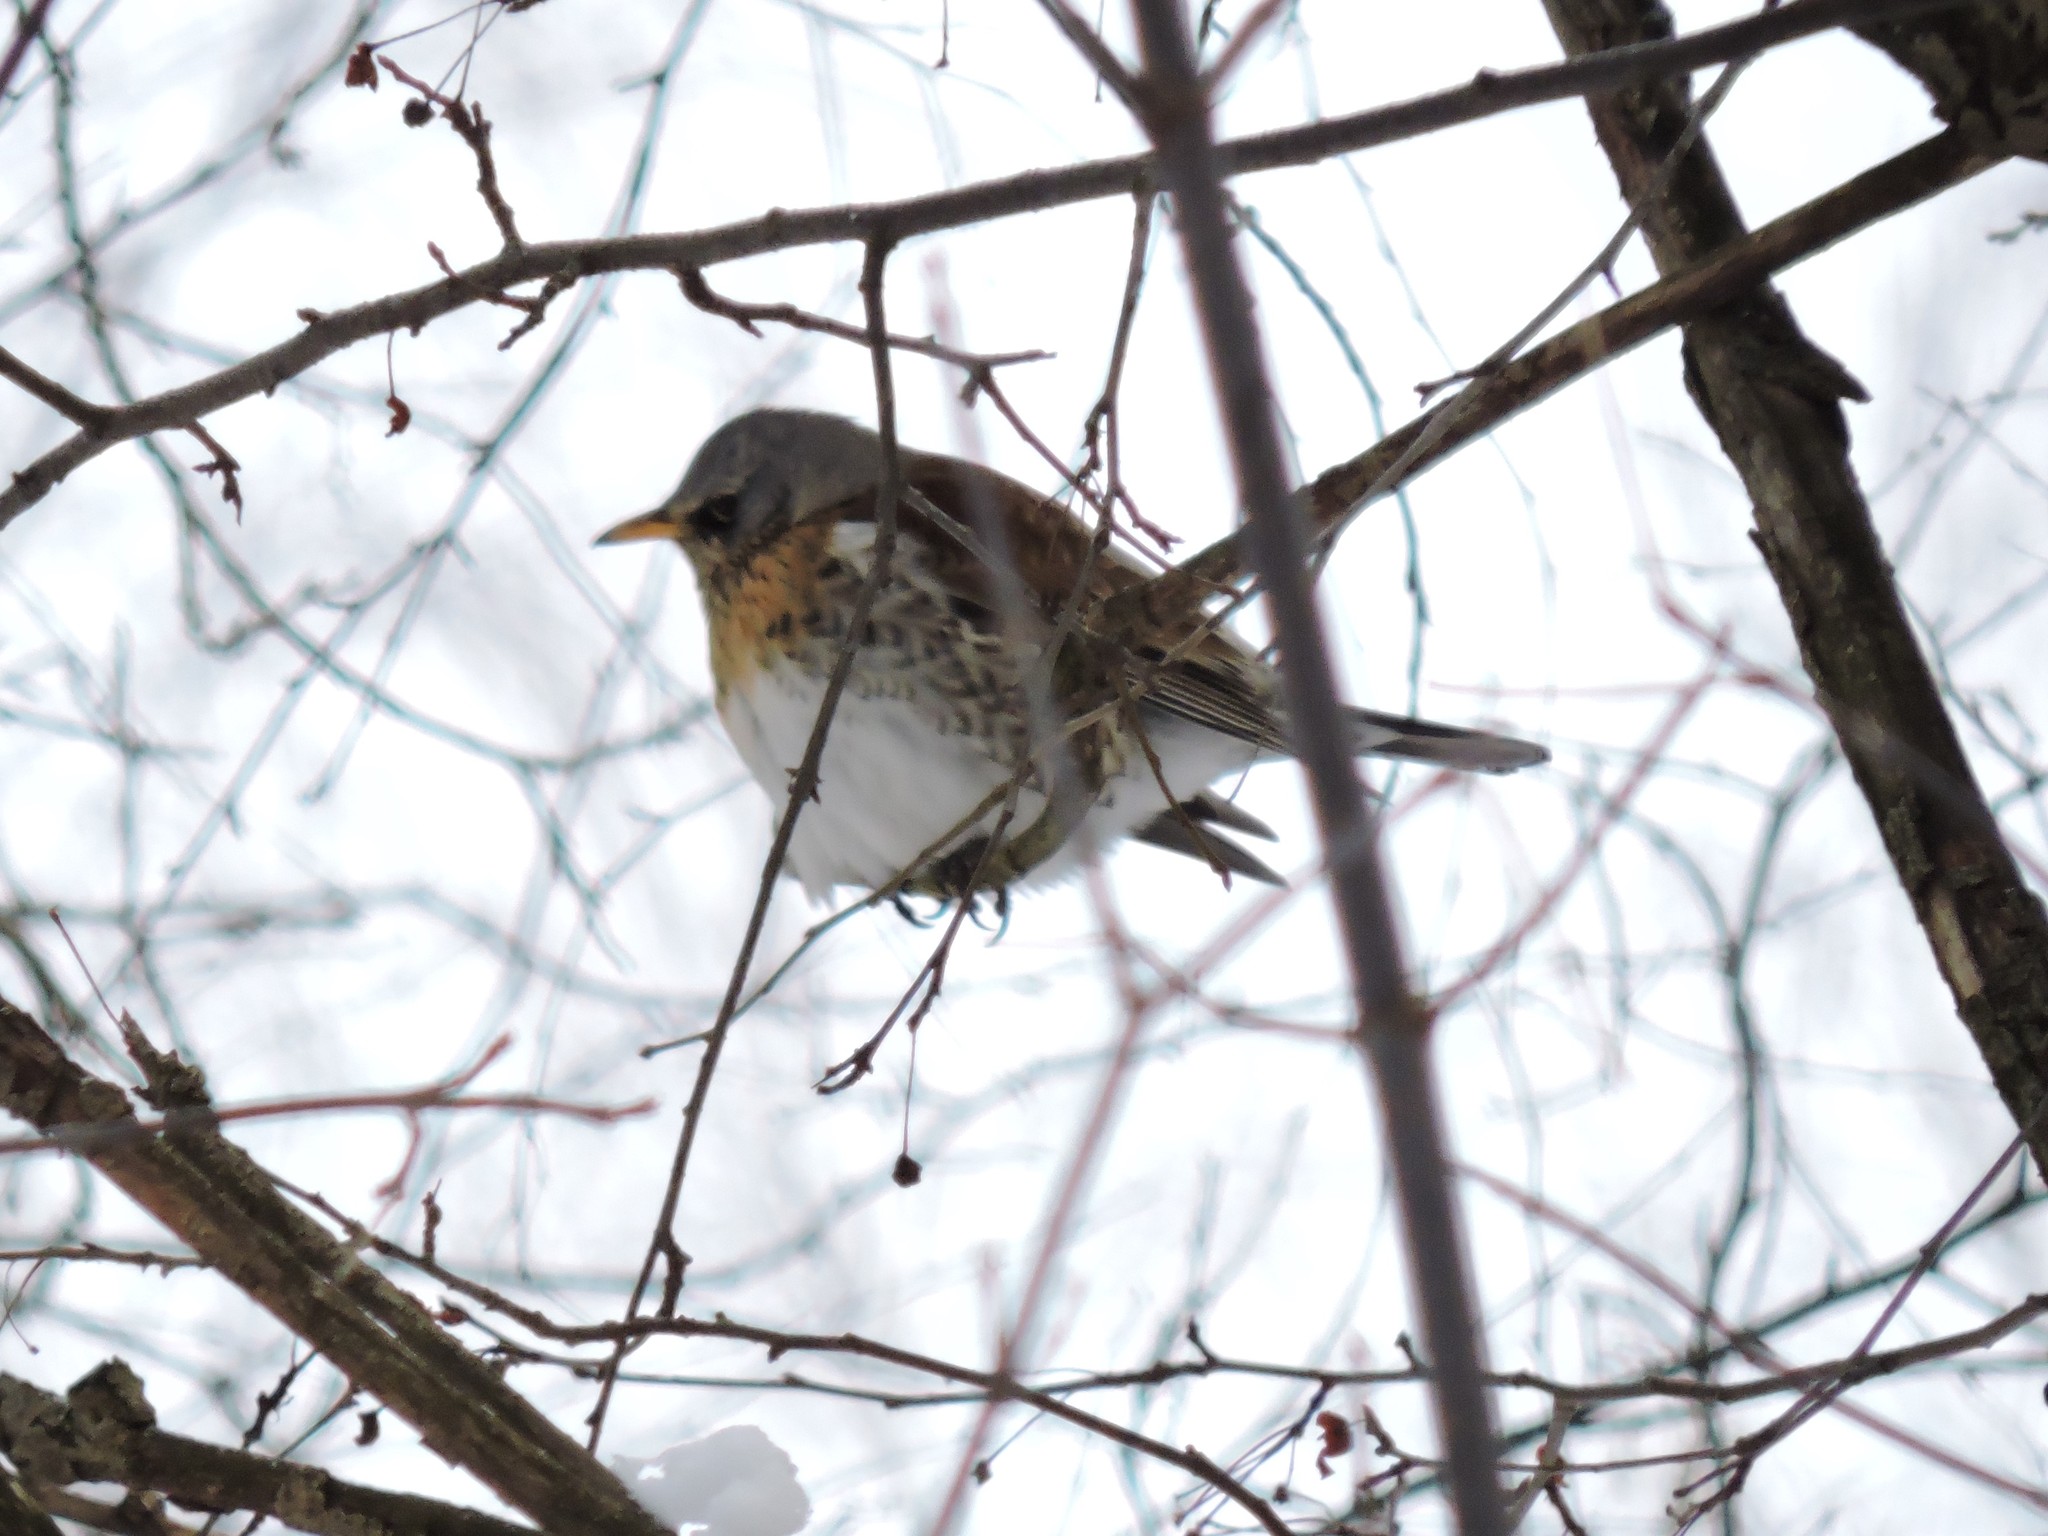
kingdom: Animalia
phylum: Chordata
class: Aves
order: Passeriformes
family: Turdidae
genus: Turdus
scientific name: Turdus pilaris
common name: Fieldfare
